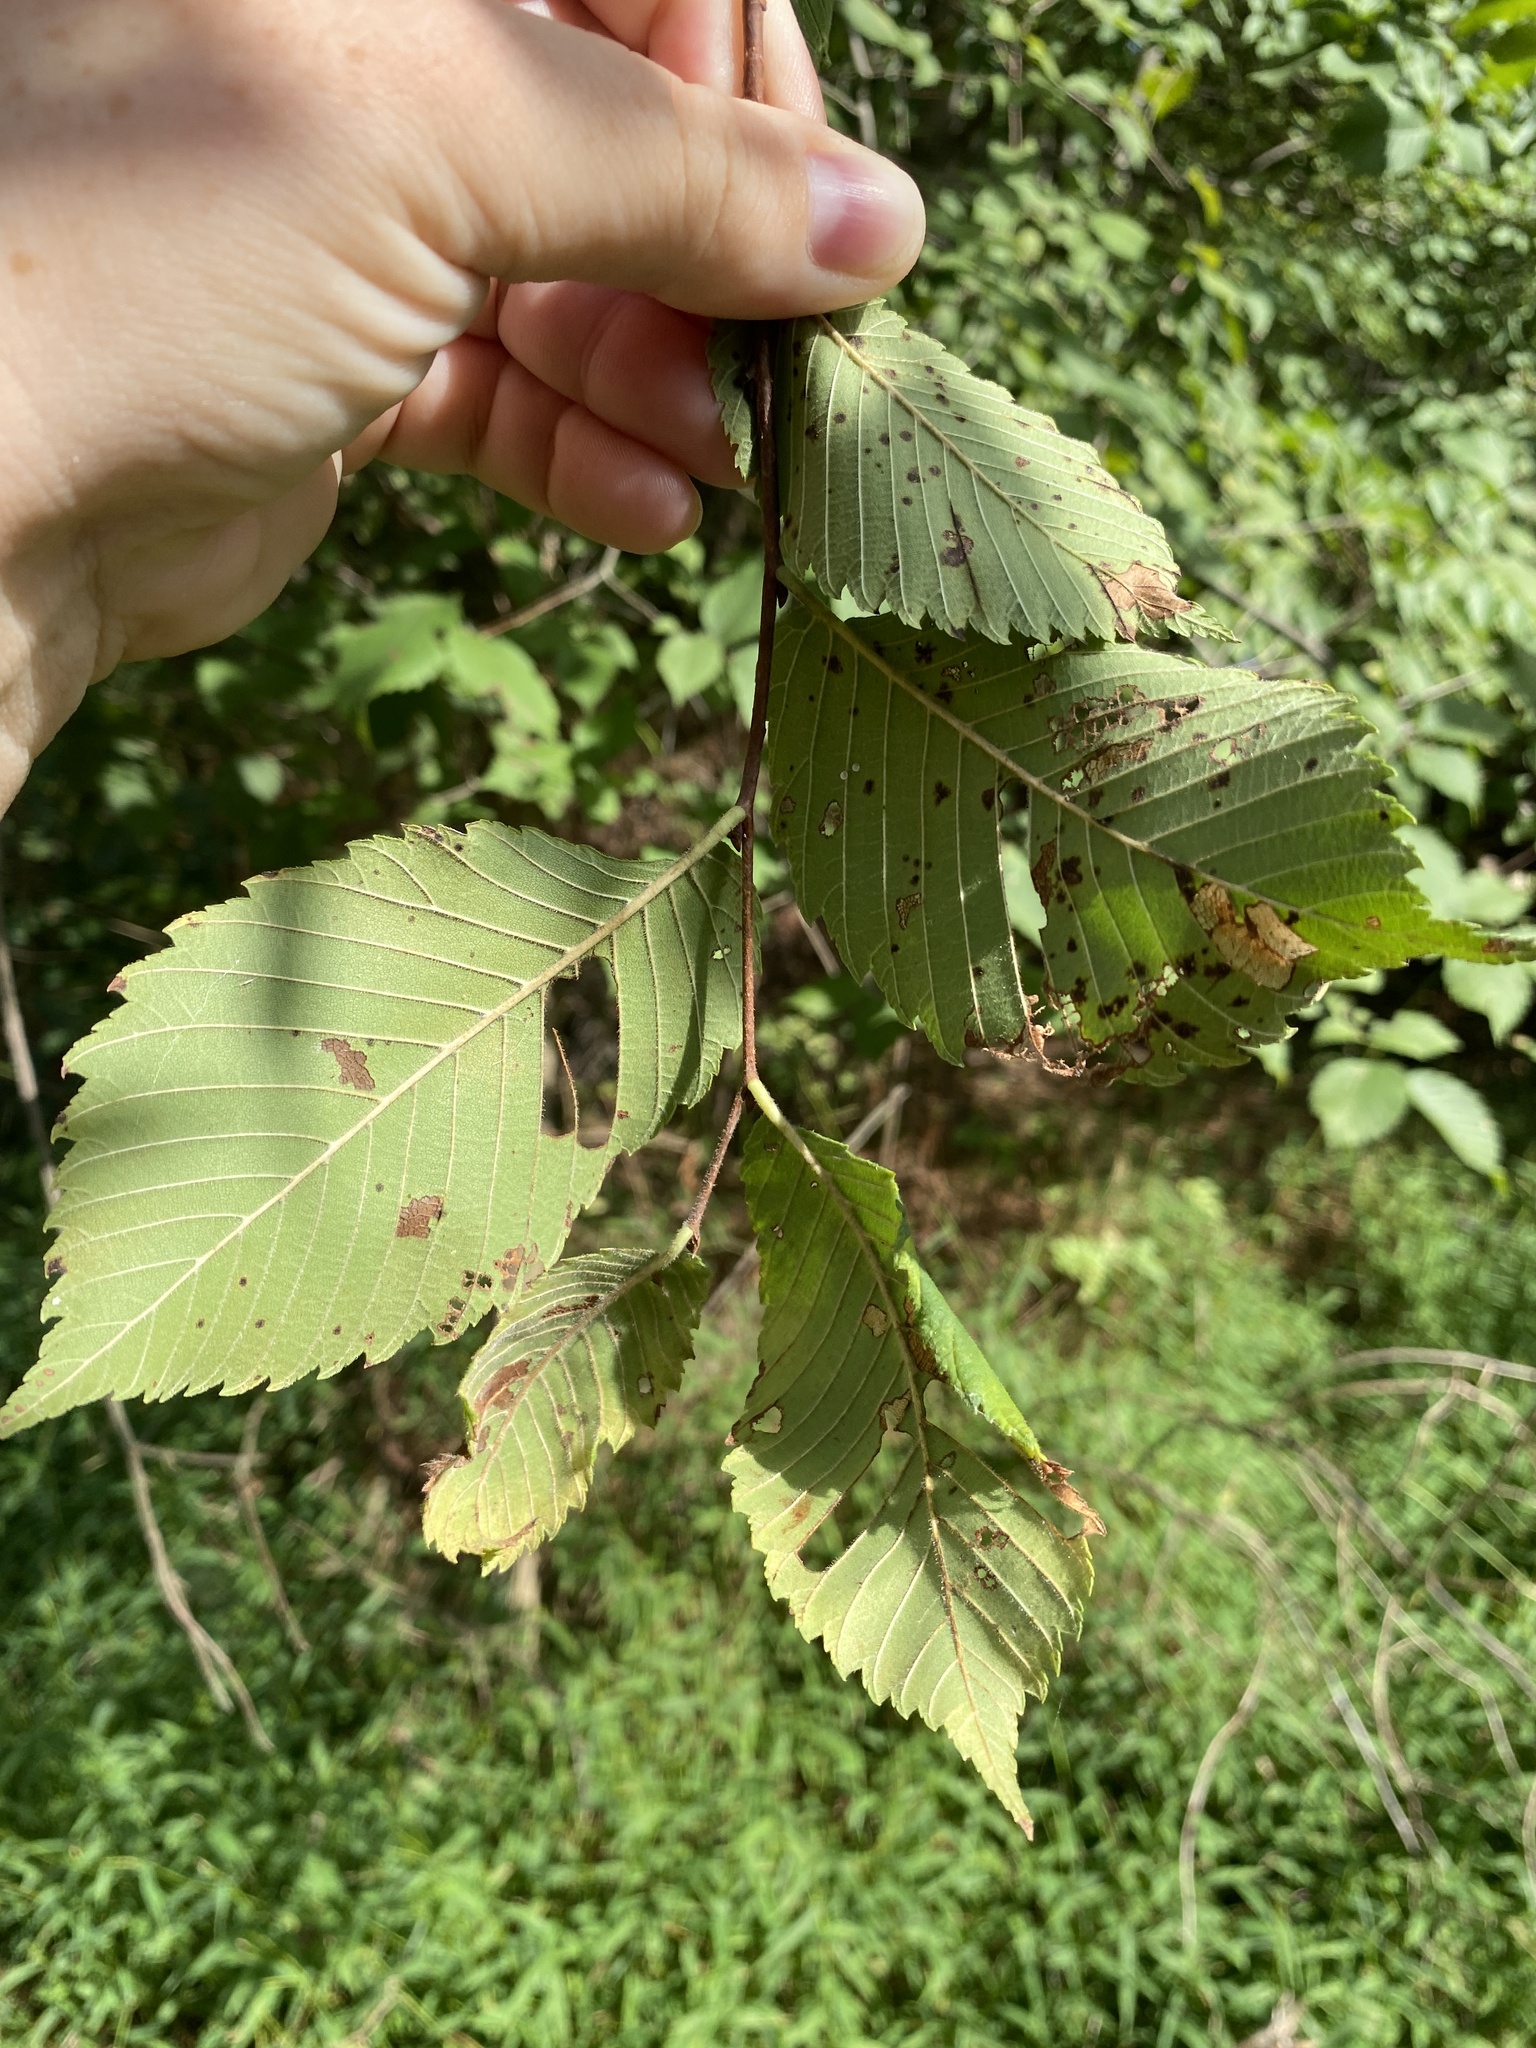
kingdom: Plantae
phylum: Tracheophyta
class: Magnoliopsida
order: Rosales
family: Ulmaceae
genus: Ulmus
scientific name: Ulmus americana
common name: American elm
